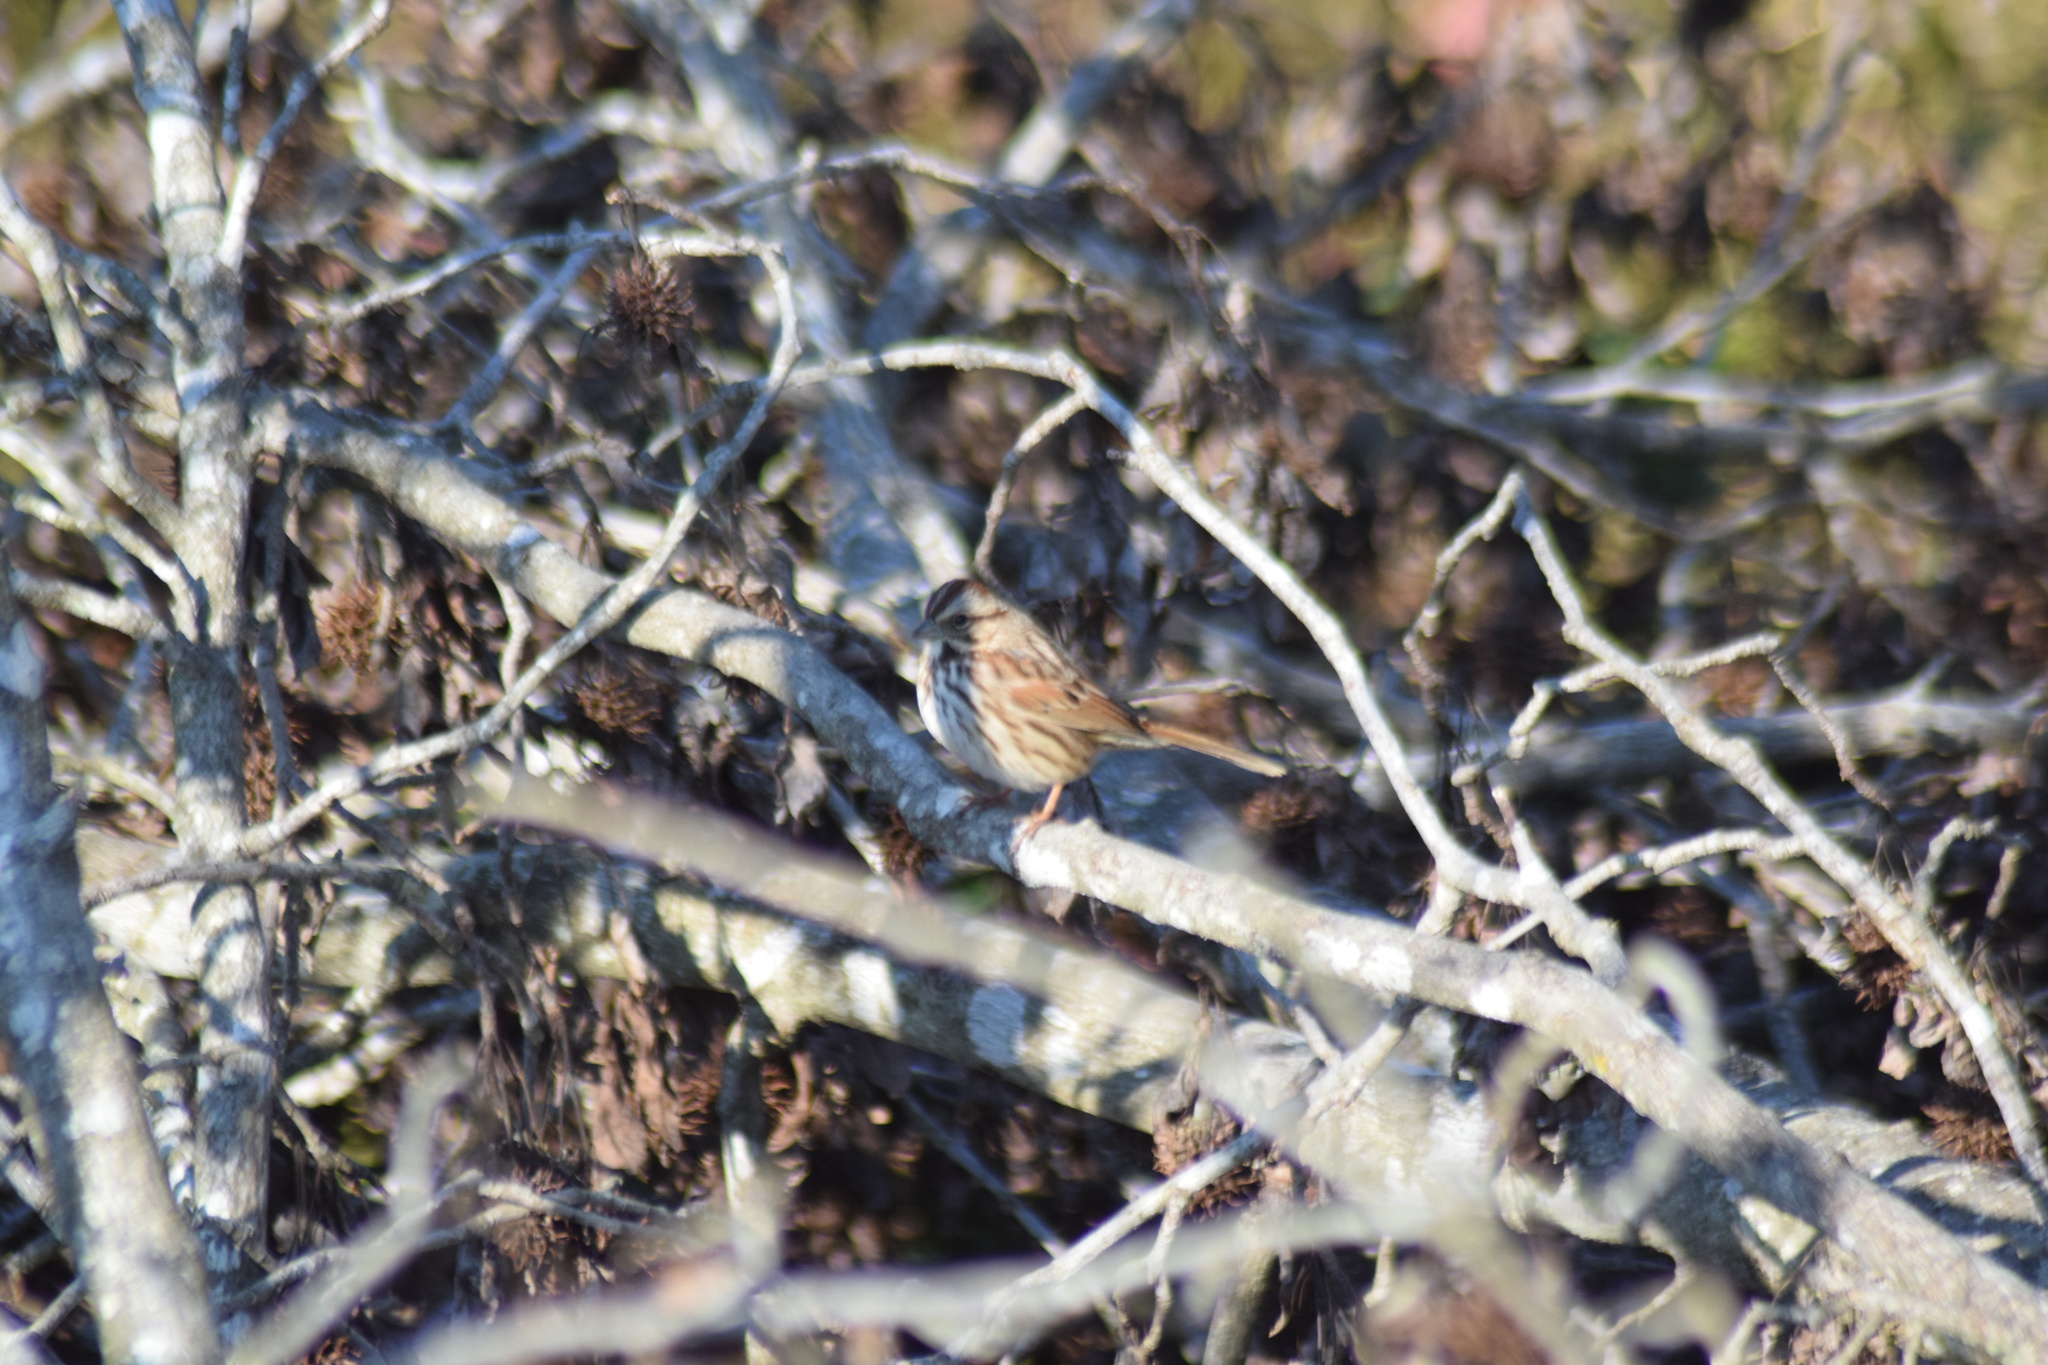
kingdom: Animalia
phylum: Chordata
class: Aves
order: Passeriformes
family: Passerellidae
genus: Melospiza
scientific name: Melospiza melodia
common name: Song sparrow
